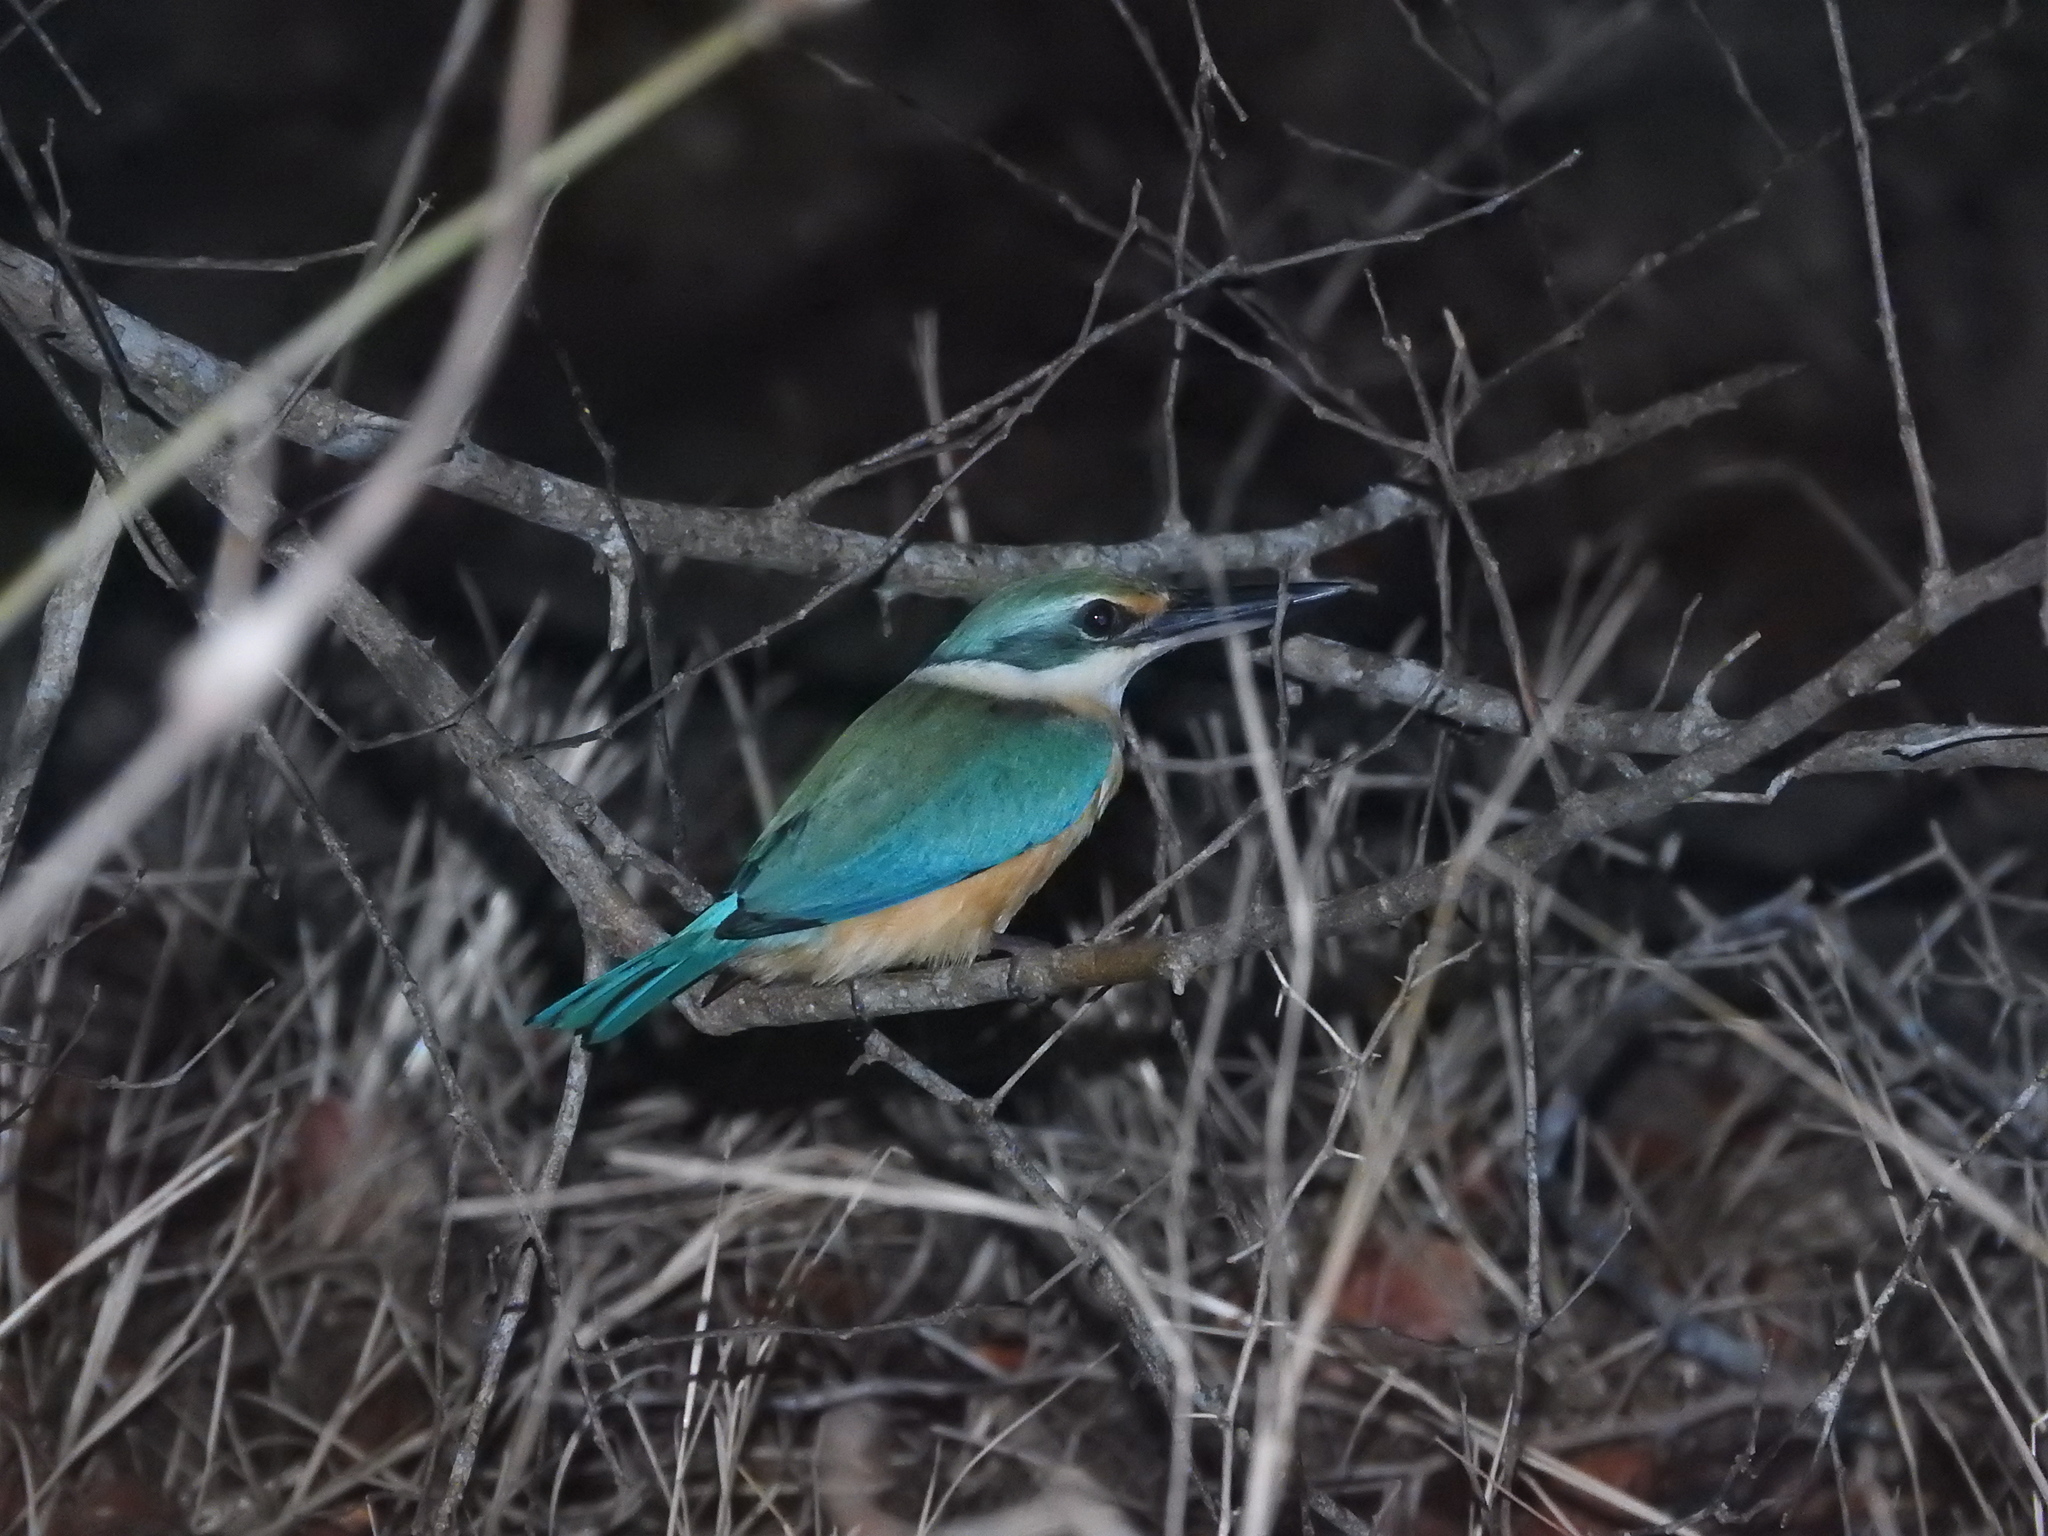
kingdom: Animalia
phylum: Chordata
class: Aves
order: Coraciiformes
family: Alcedinidae
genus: Todiramphus
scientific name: Todiramphus sanctus
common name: Sacred kingfisher
